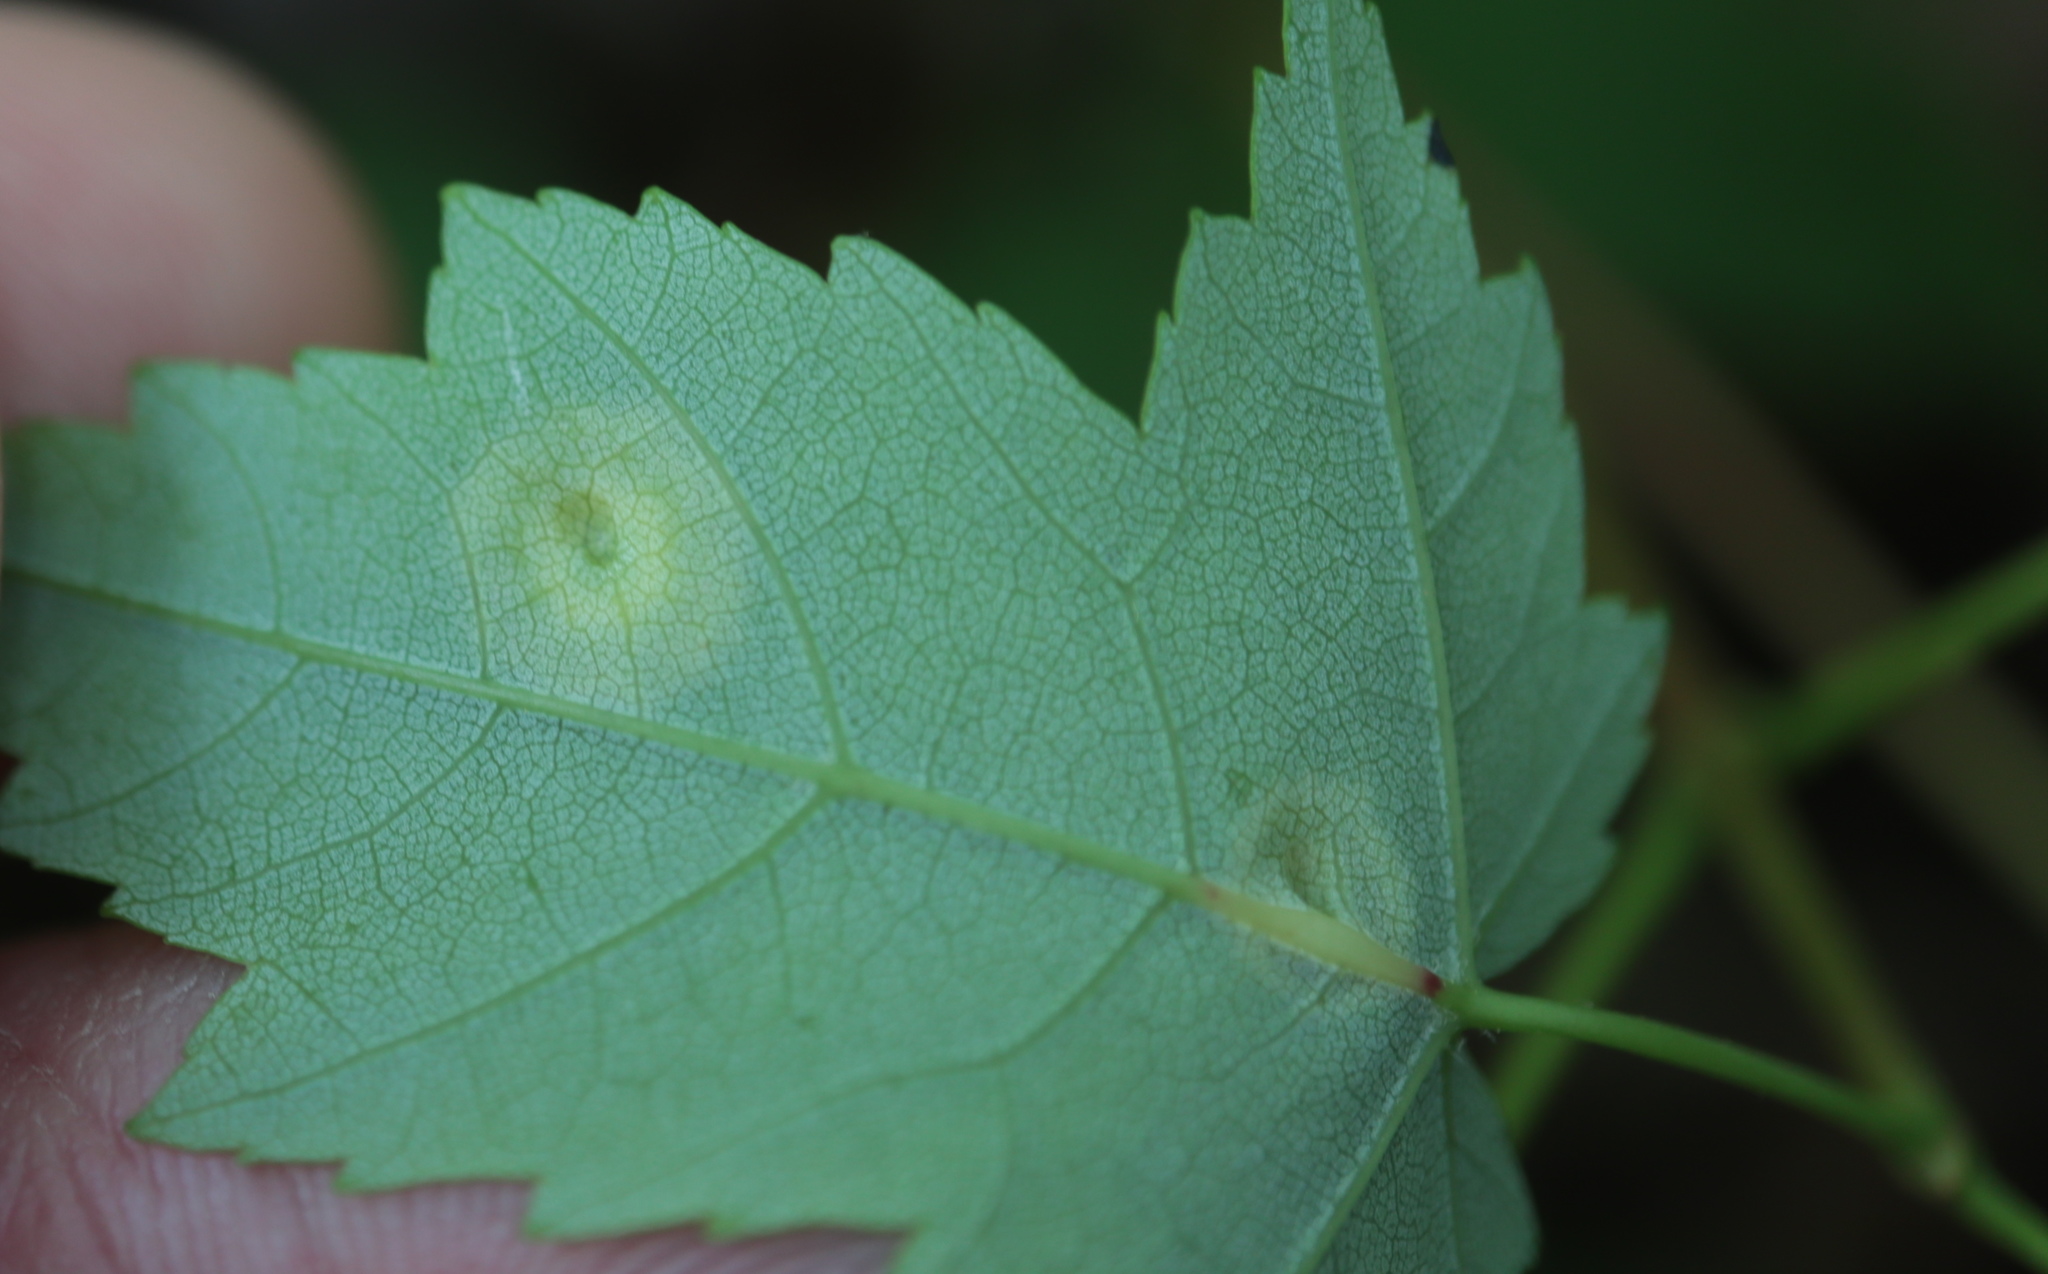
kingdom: Animalia
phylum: Arthropoda
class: Insecta
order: Diptera
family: Cecidomyiidae
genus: Acericecis
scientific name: Acericecis ocellaris
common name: Ocellate gall midge
